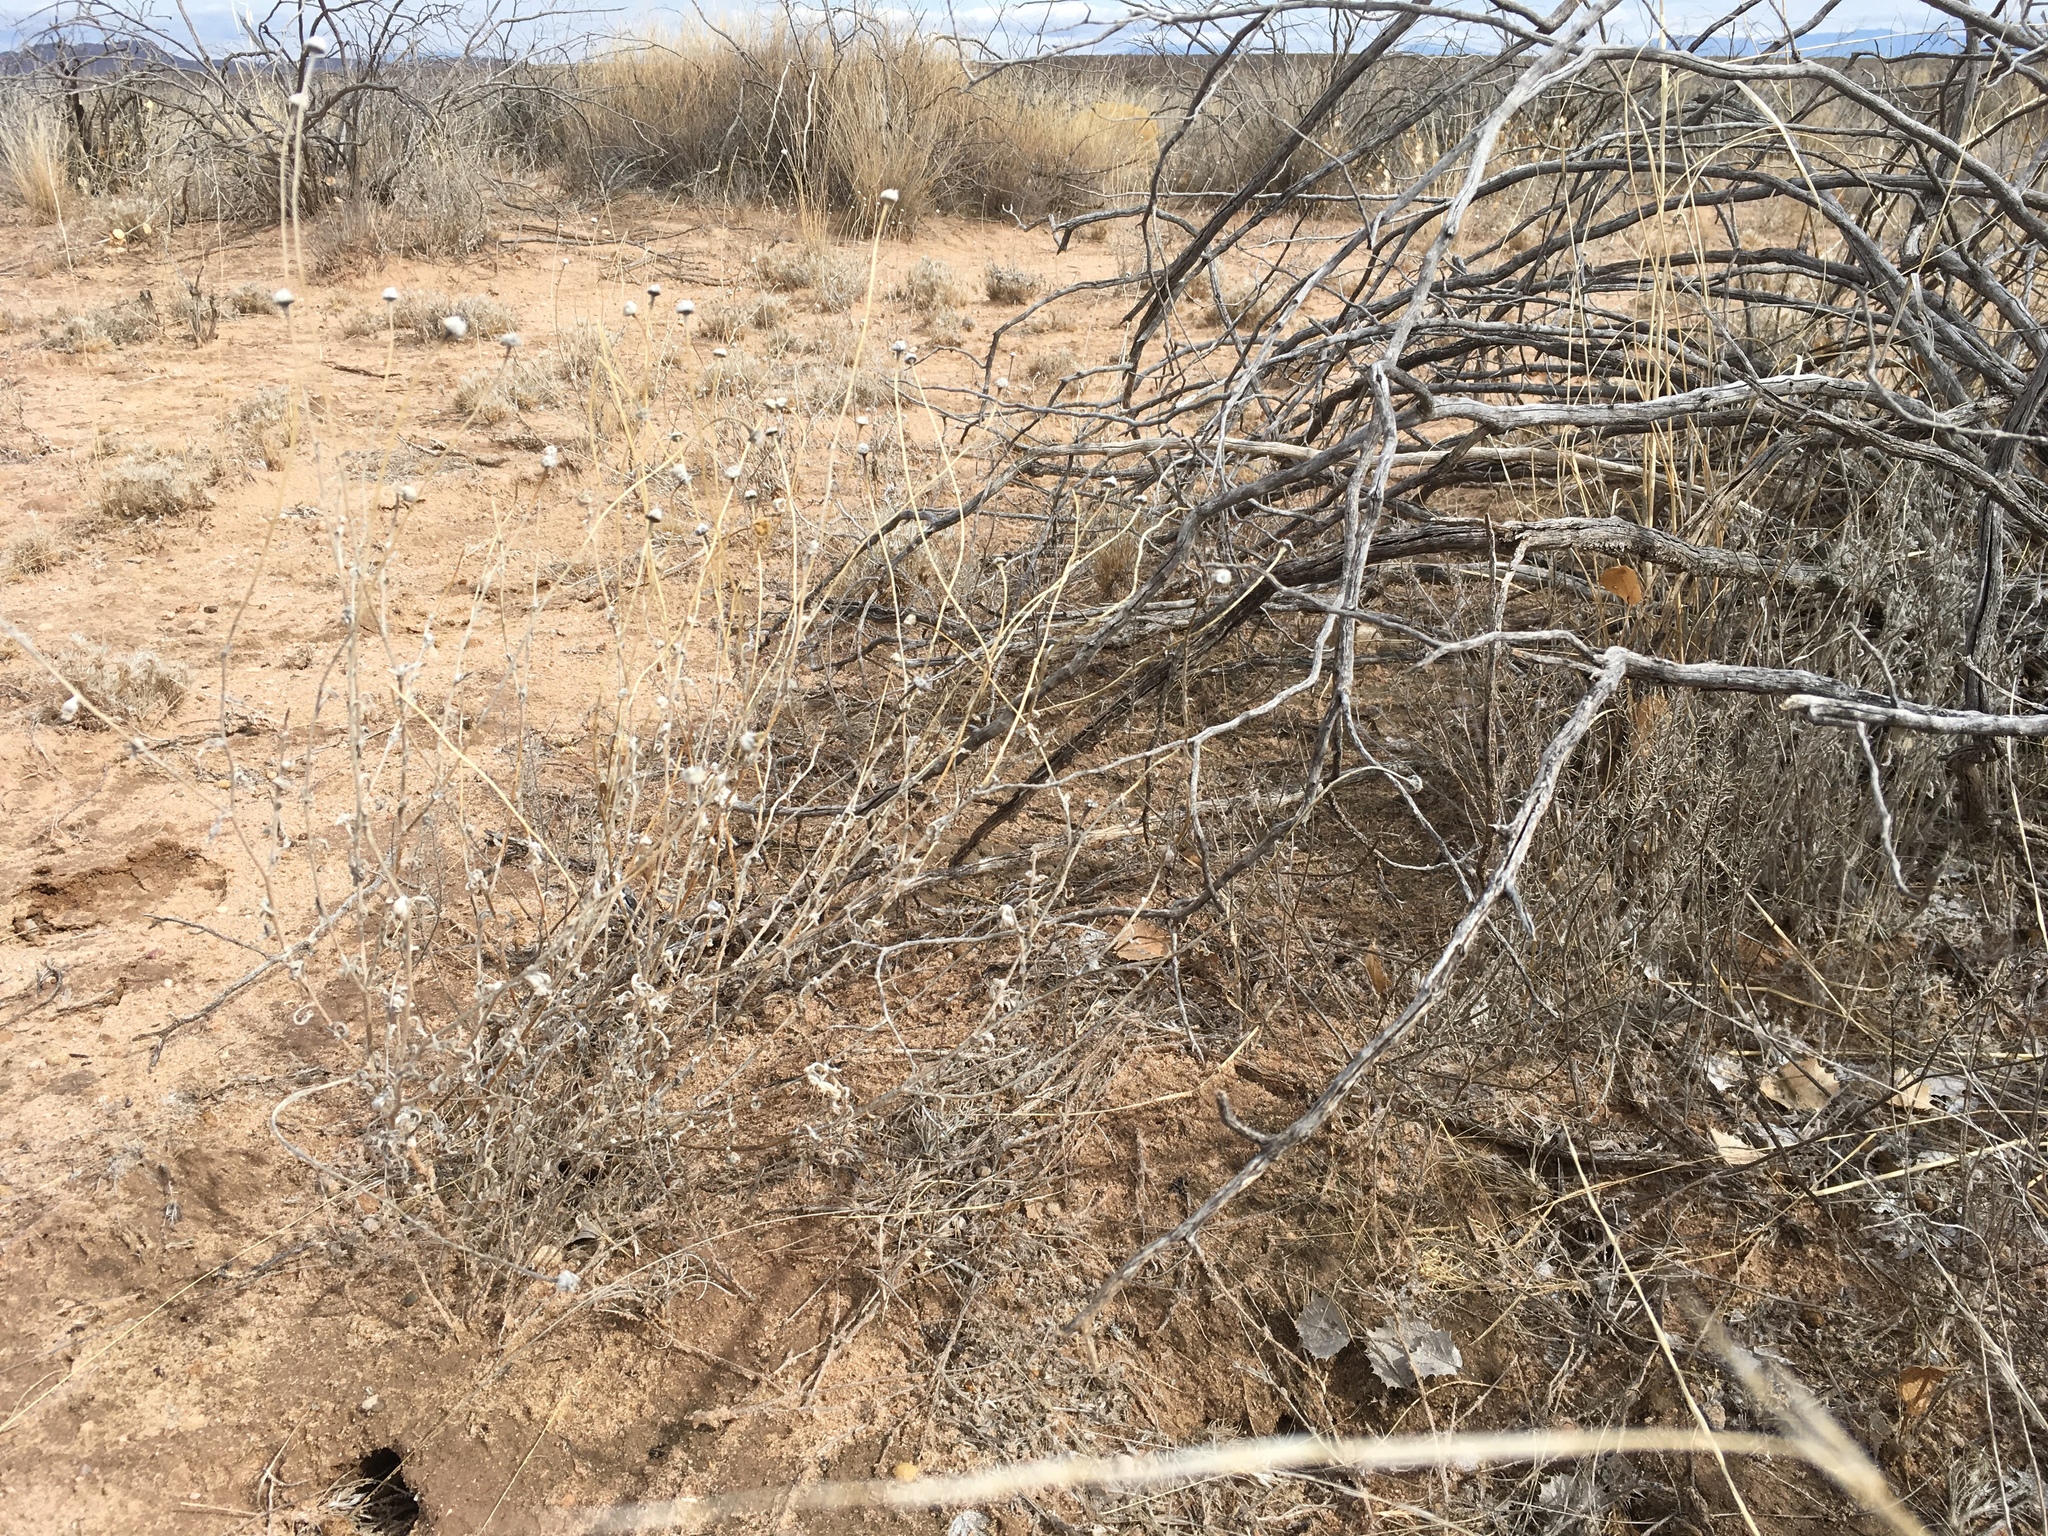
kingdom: Plantae
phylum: Tracheophyta
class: Magnoliopsida
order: Asterales
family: Asteraceae
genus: Baileya
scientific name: Baileya multiradiata
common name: Desert-marigold
